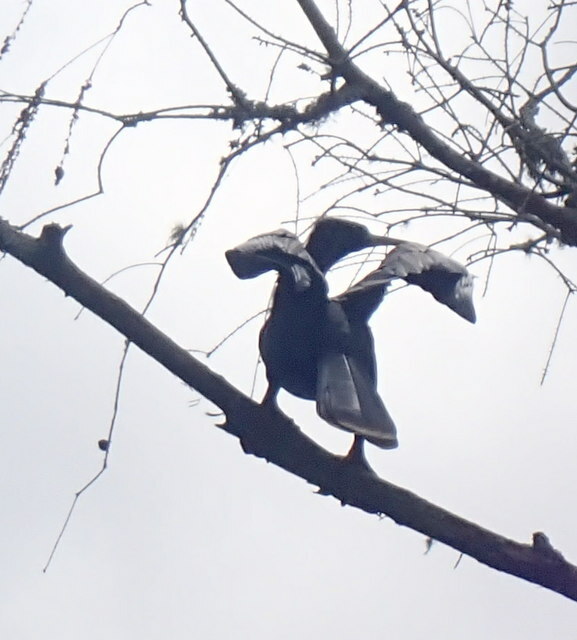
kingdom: Animalia
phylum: Chordata
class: Aves
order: Suliformes
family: Anhingidae
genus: Anhinga
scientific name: Anhinga anhinga
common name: Anhinga
